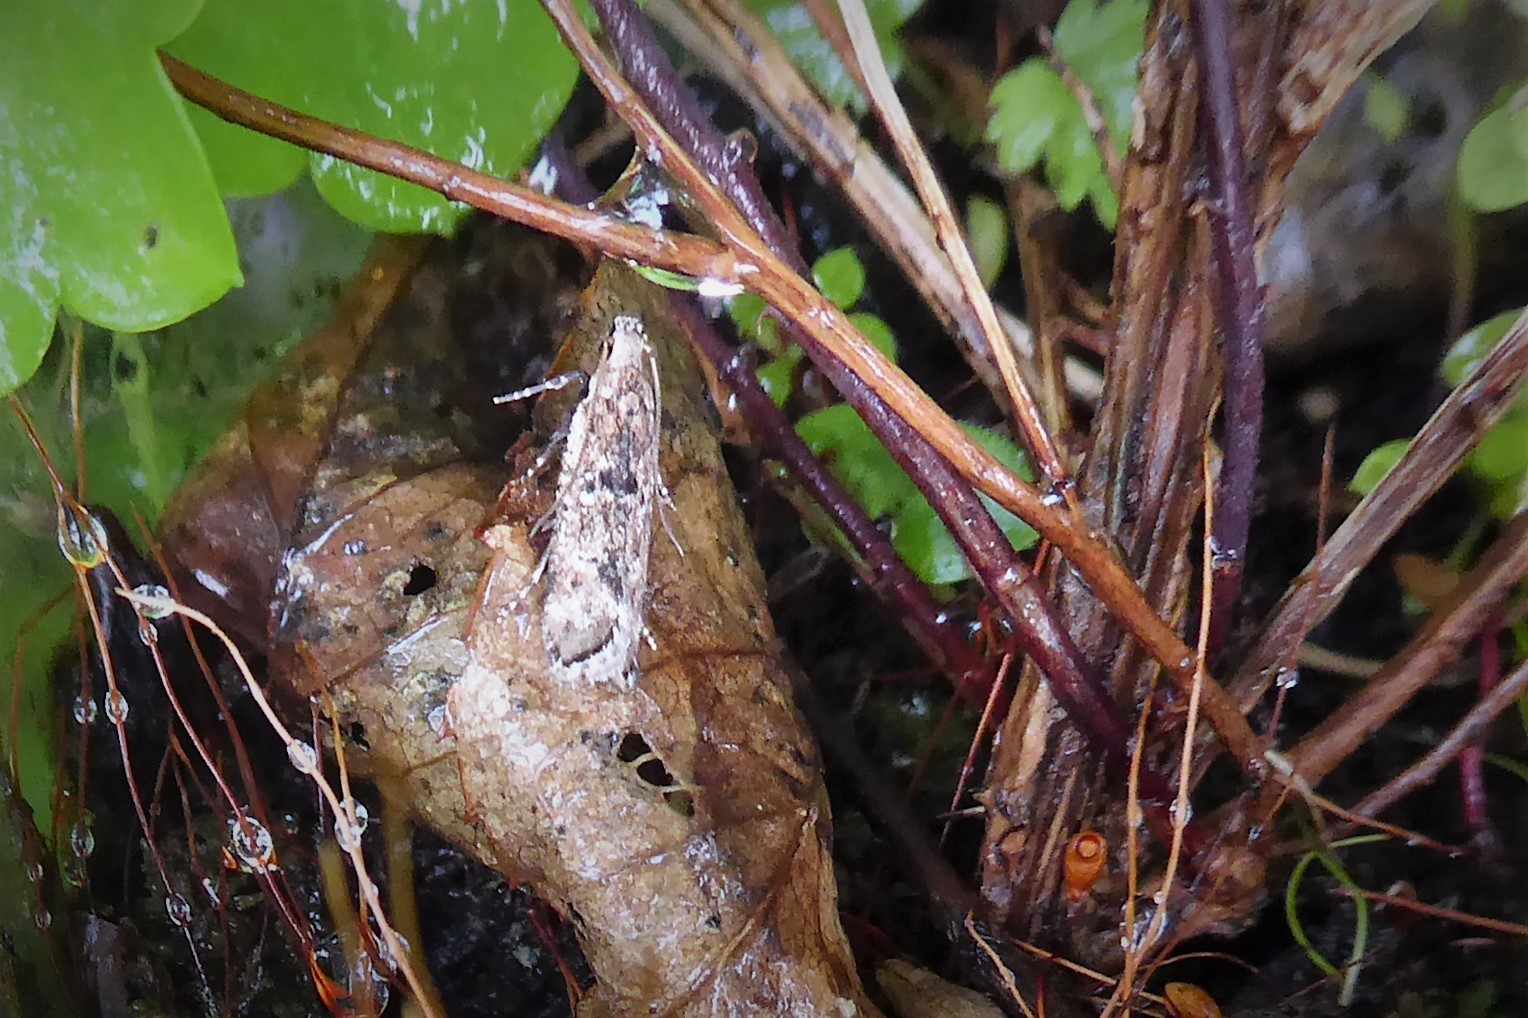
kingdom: Animalia
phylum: Arthropoda
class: Insecta
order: Lepidoptera
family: Gelechiidae
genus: Anisoplaca
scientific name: Anisoplaca achyrota
